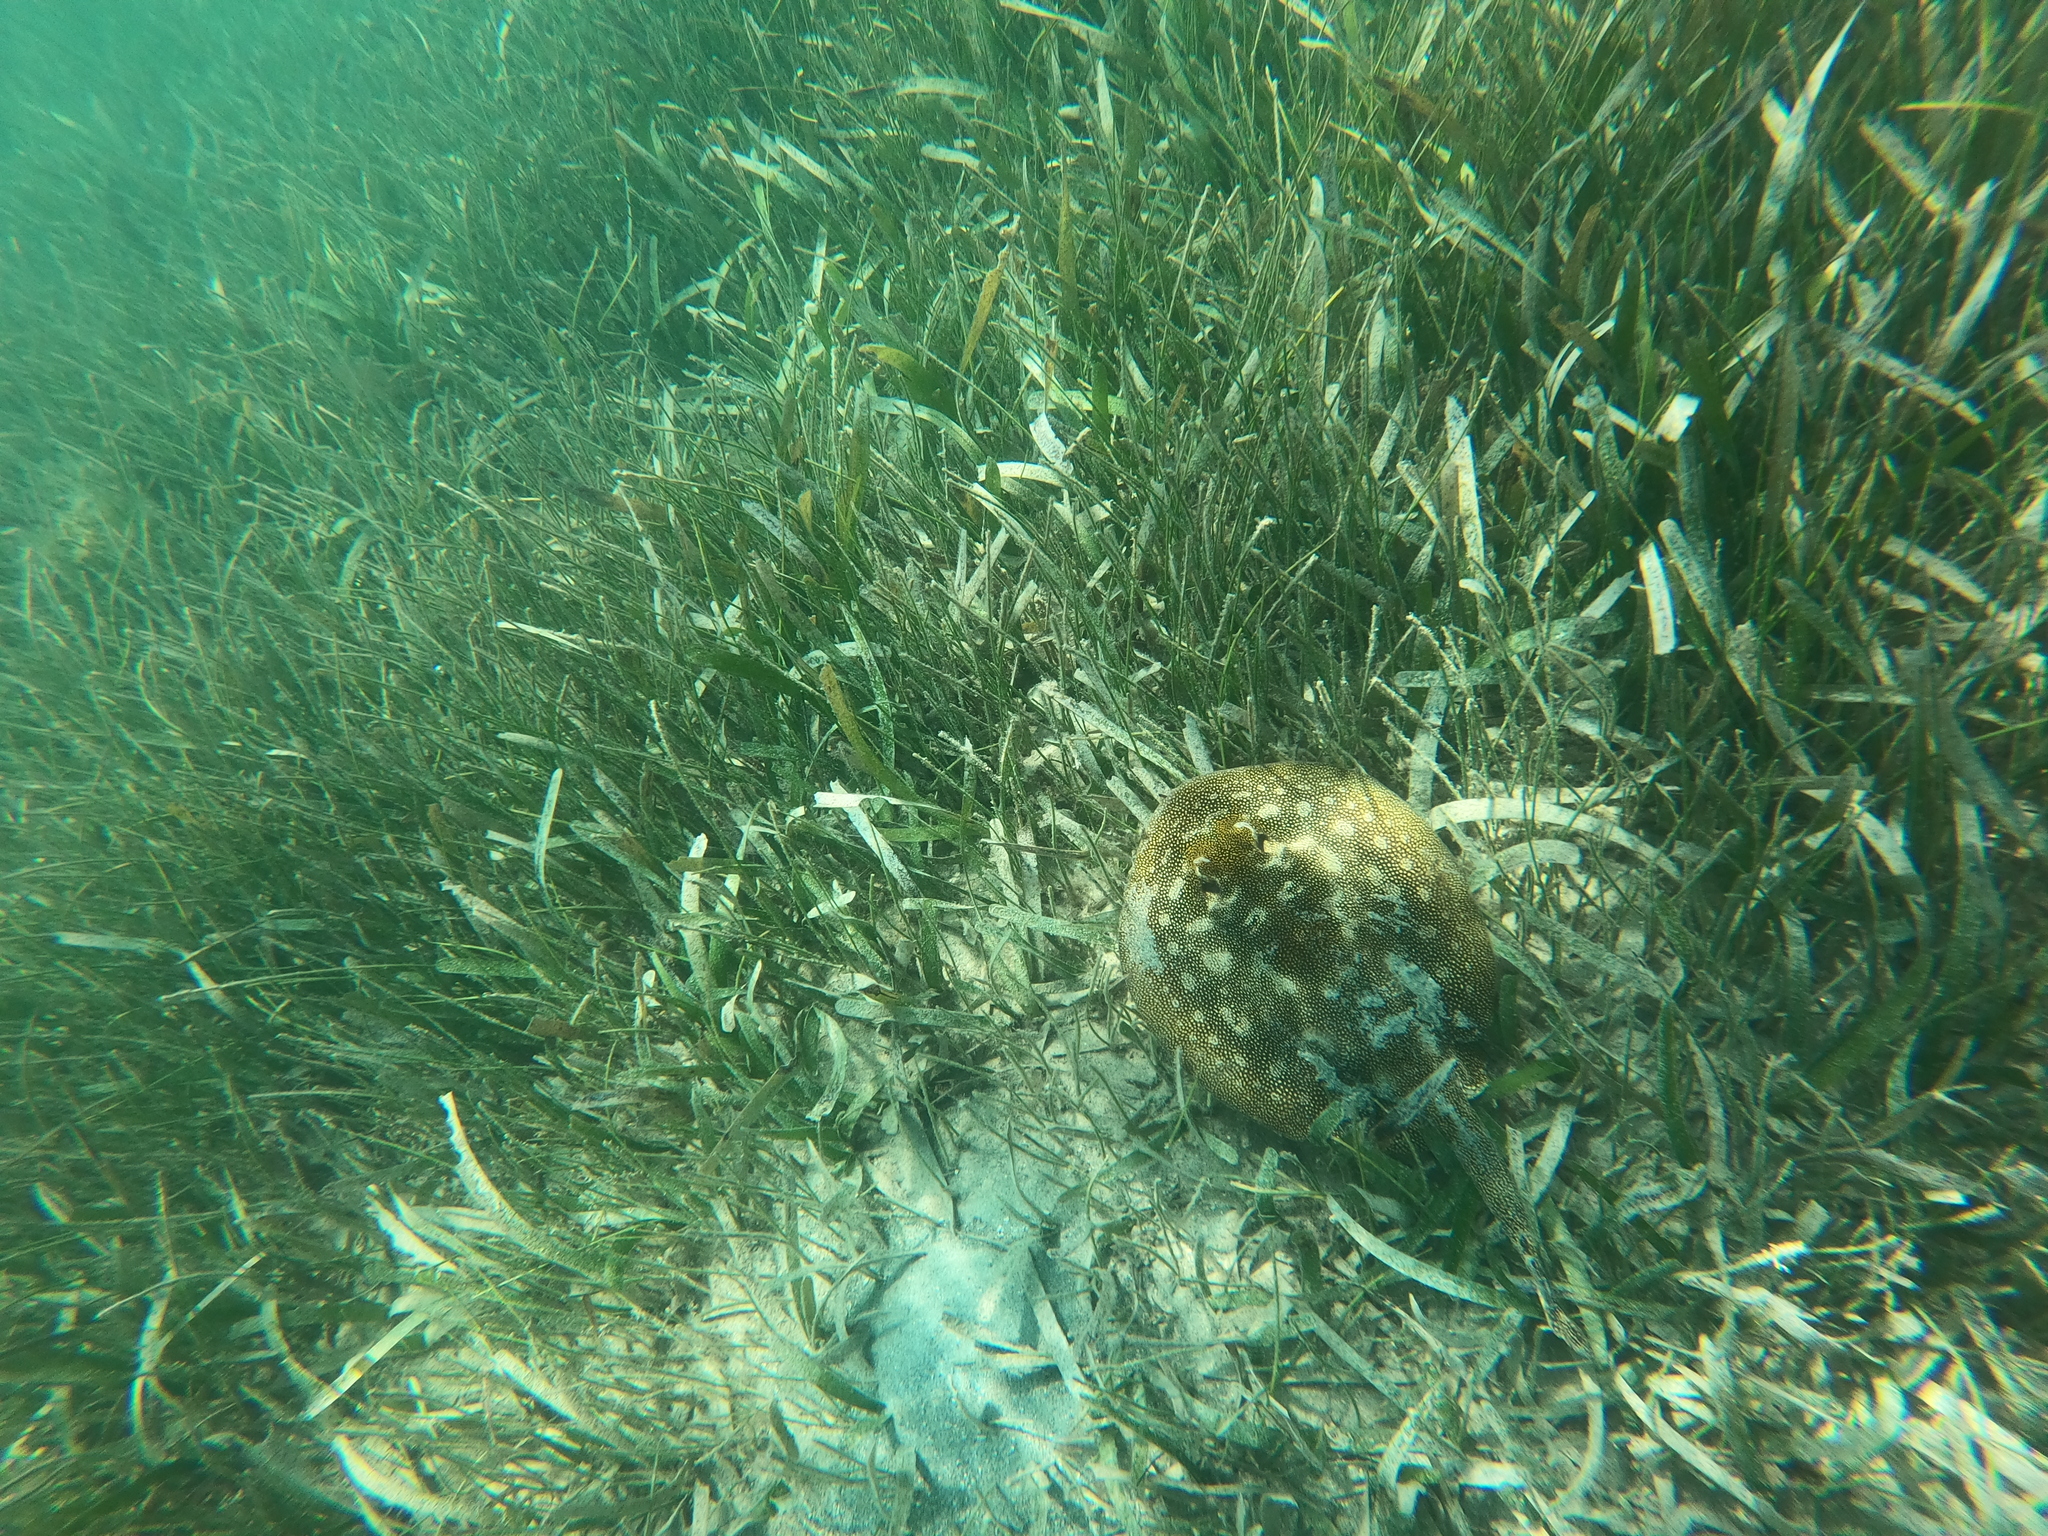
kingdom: Animalia
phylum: Chordata
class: Elasmobranchii
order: Myliobatiformes
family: Urotrygonidae
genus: Urobatis
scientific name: Urobatis jamaicensis
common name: Yellow stingray
